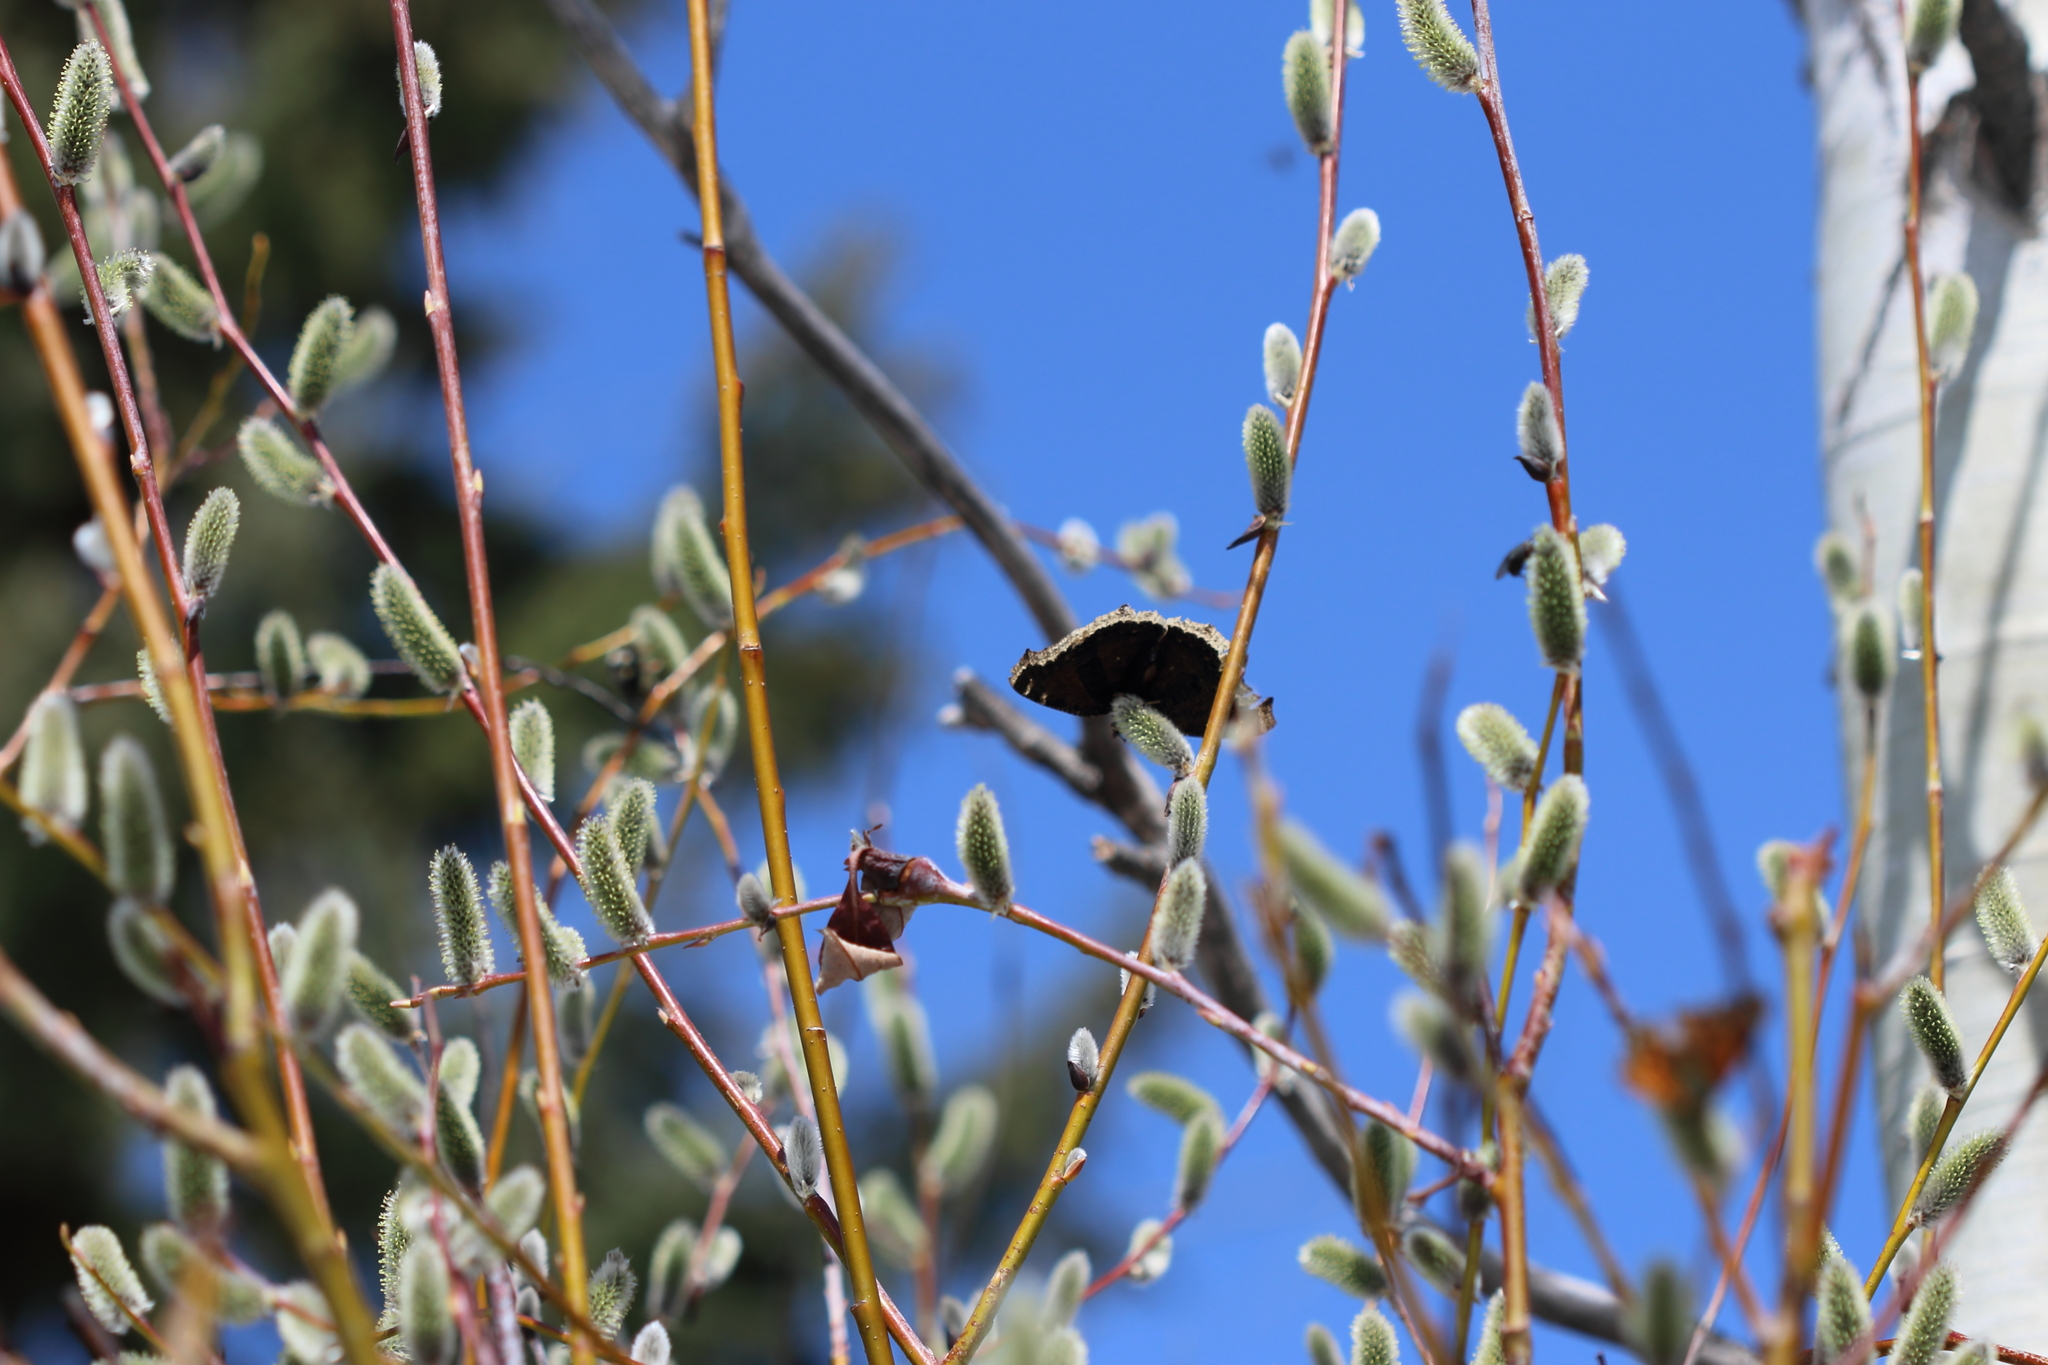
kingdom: Animalia
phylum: Arthropoda
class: Insecta
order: Lepidoptera
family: Nymphalidae
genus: Nymphalis
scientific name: Nymphalis antiopa
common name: Camberwell beauty
